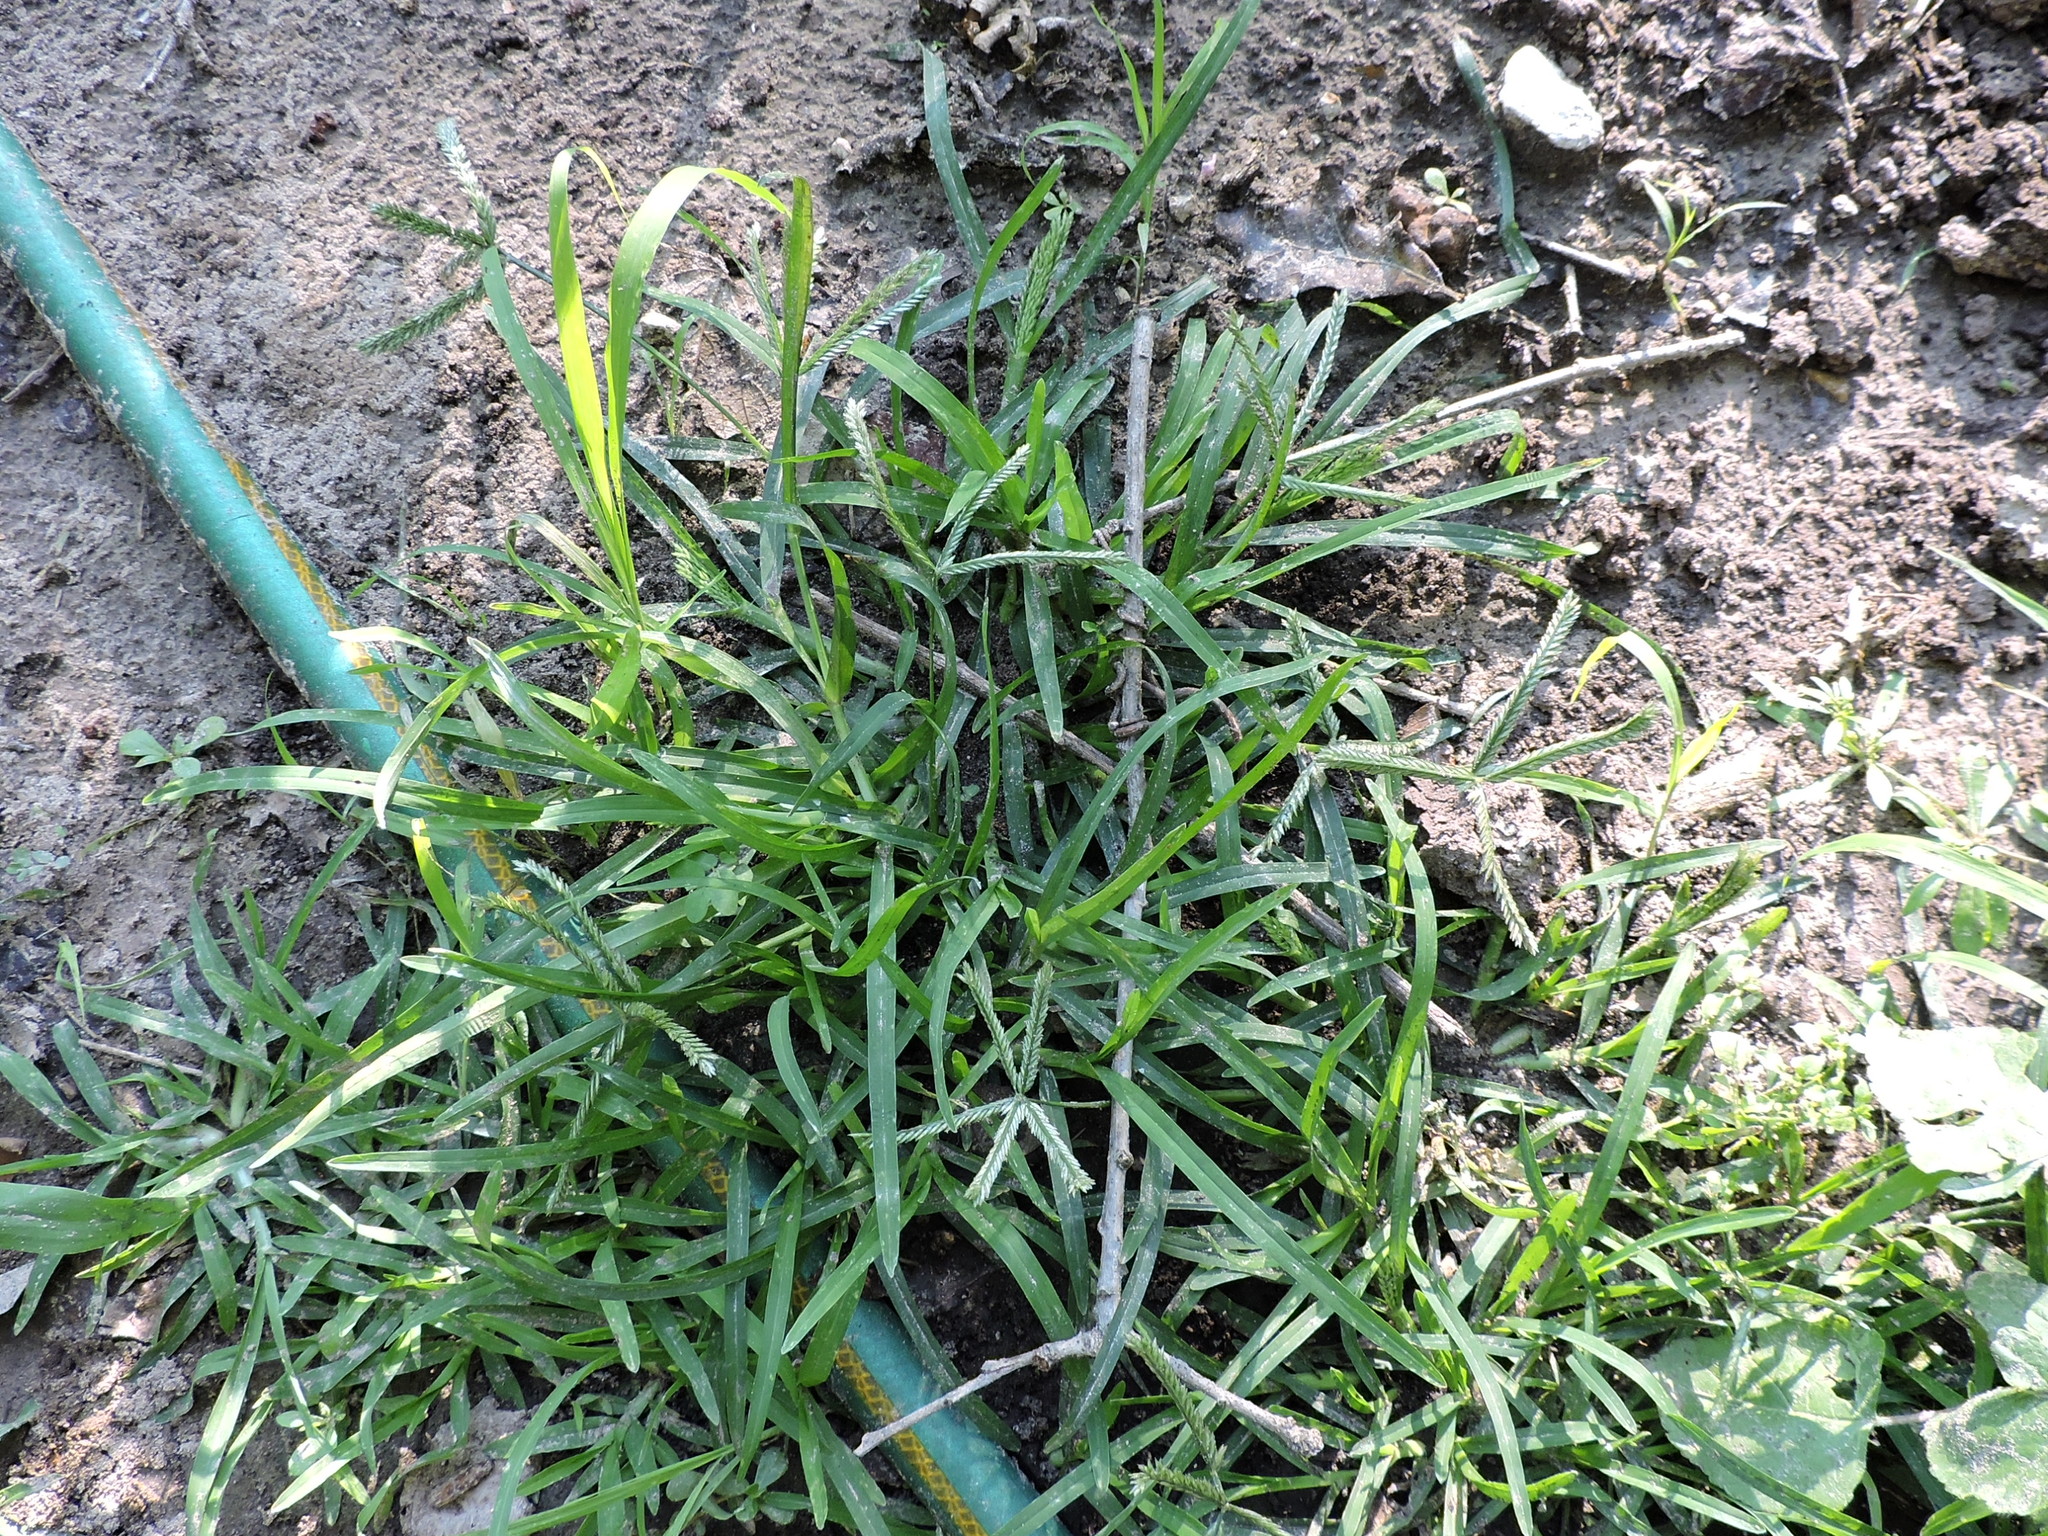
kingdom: Plantae
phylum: Tracheophyta
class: Liliopsida
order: Poales
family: Poaceae
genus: Eleusine
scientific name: Eleusine indica
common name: Yard-grass
